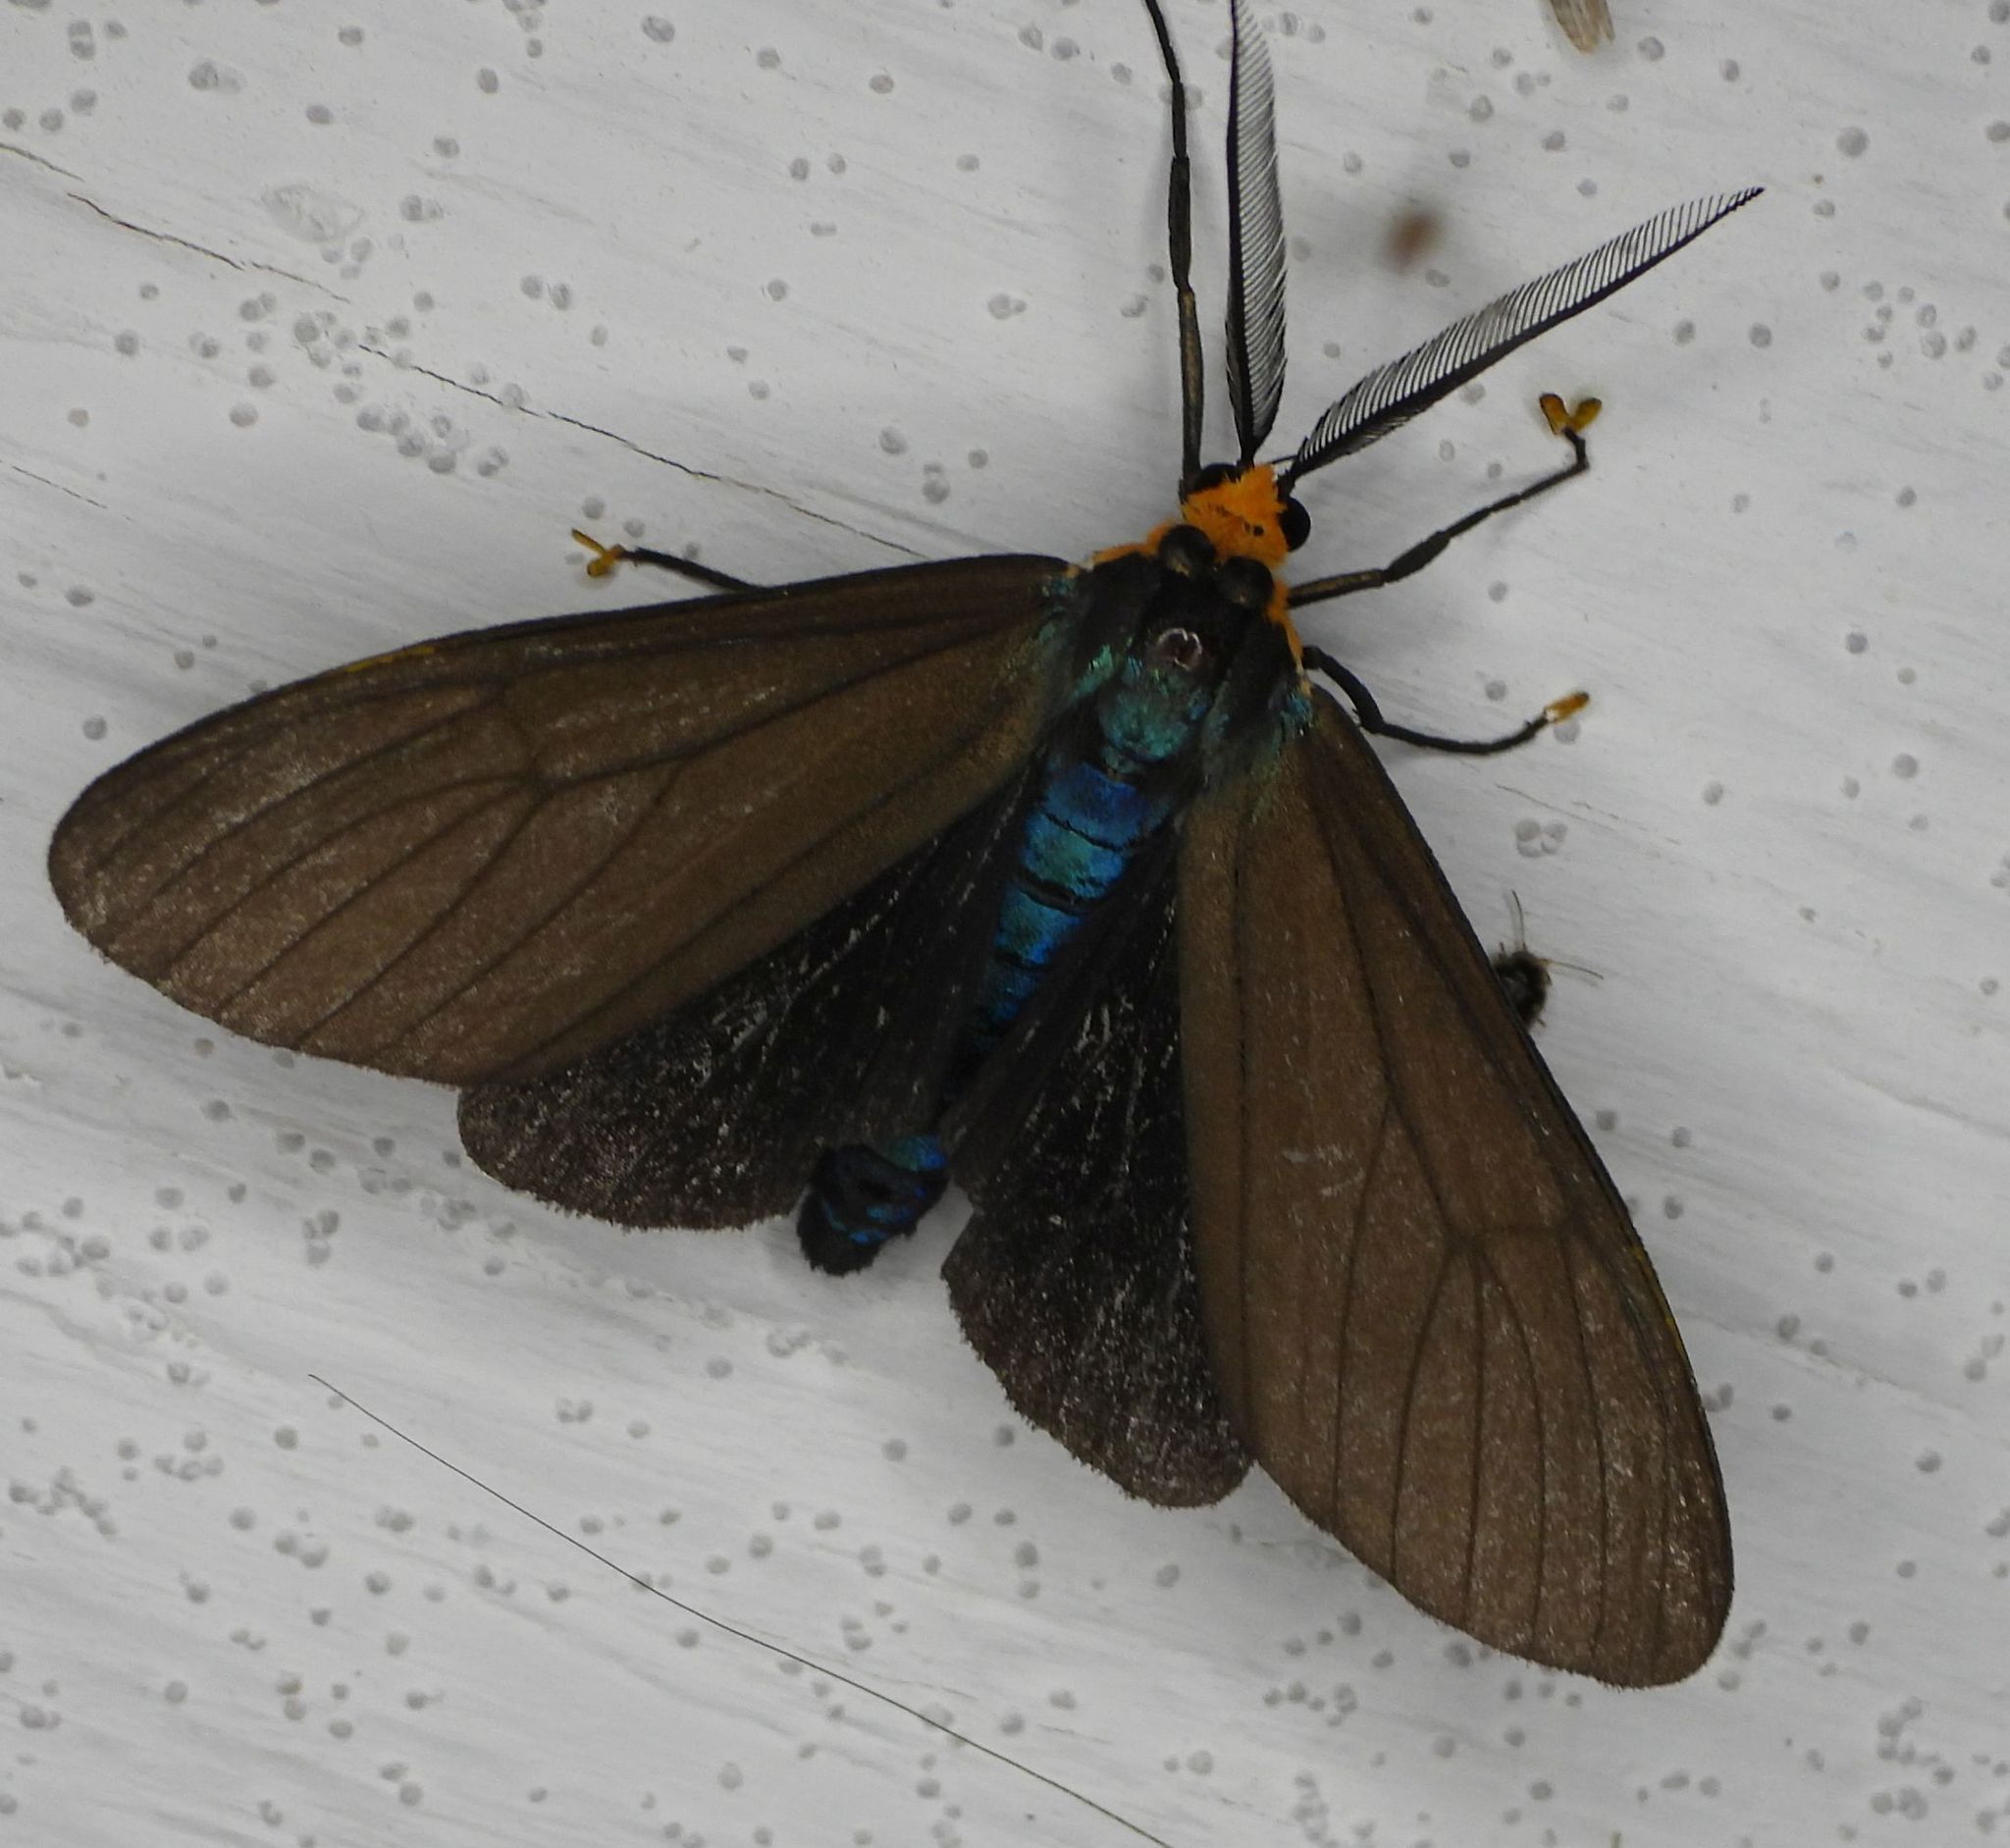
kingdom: Animalia
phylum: Arthropoda
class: Insecta
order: Lepidoptera
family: Erebidae
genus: Ctenucha
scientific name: Ctenucha virginica
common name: Virginia ctenucha moth
